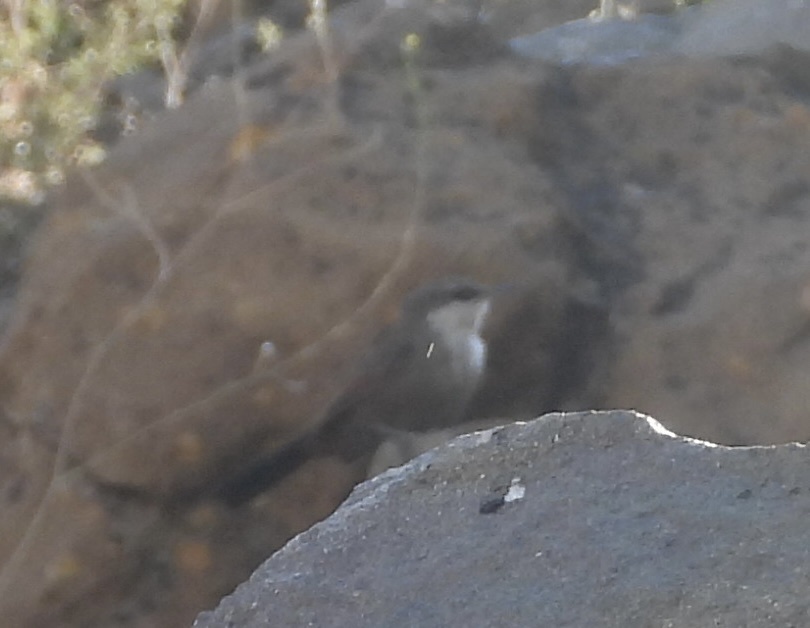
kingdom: Animalia
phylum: Chordata
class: Aves
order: Passeriformes
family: Furnariidae
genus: Chilia
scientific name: Chilia melanura
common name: Crag chilia
